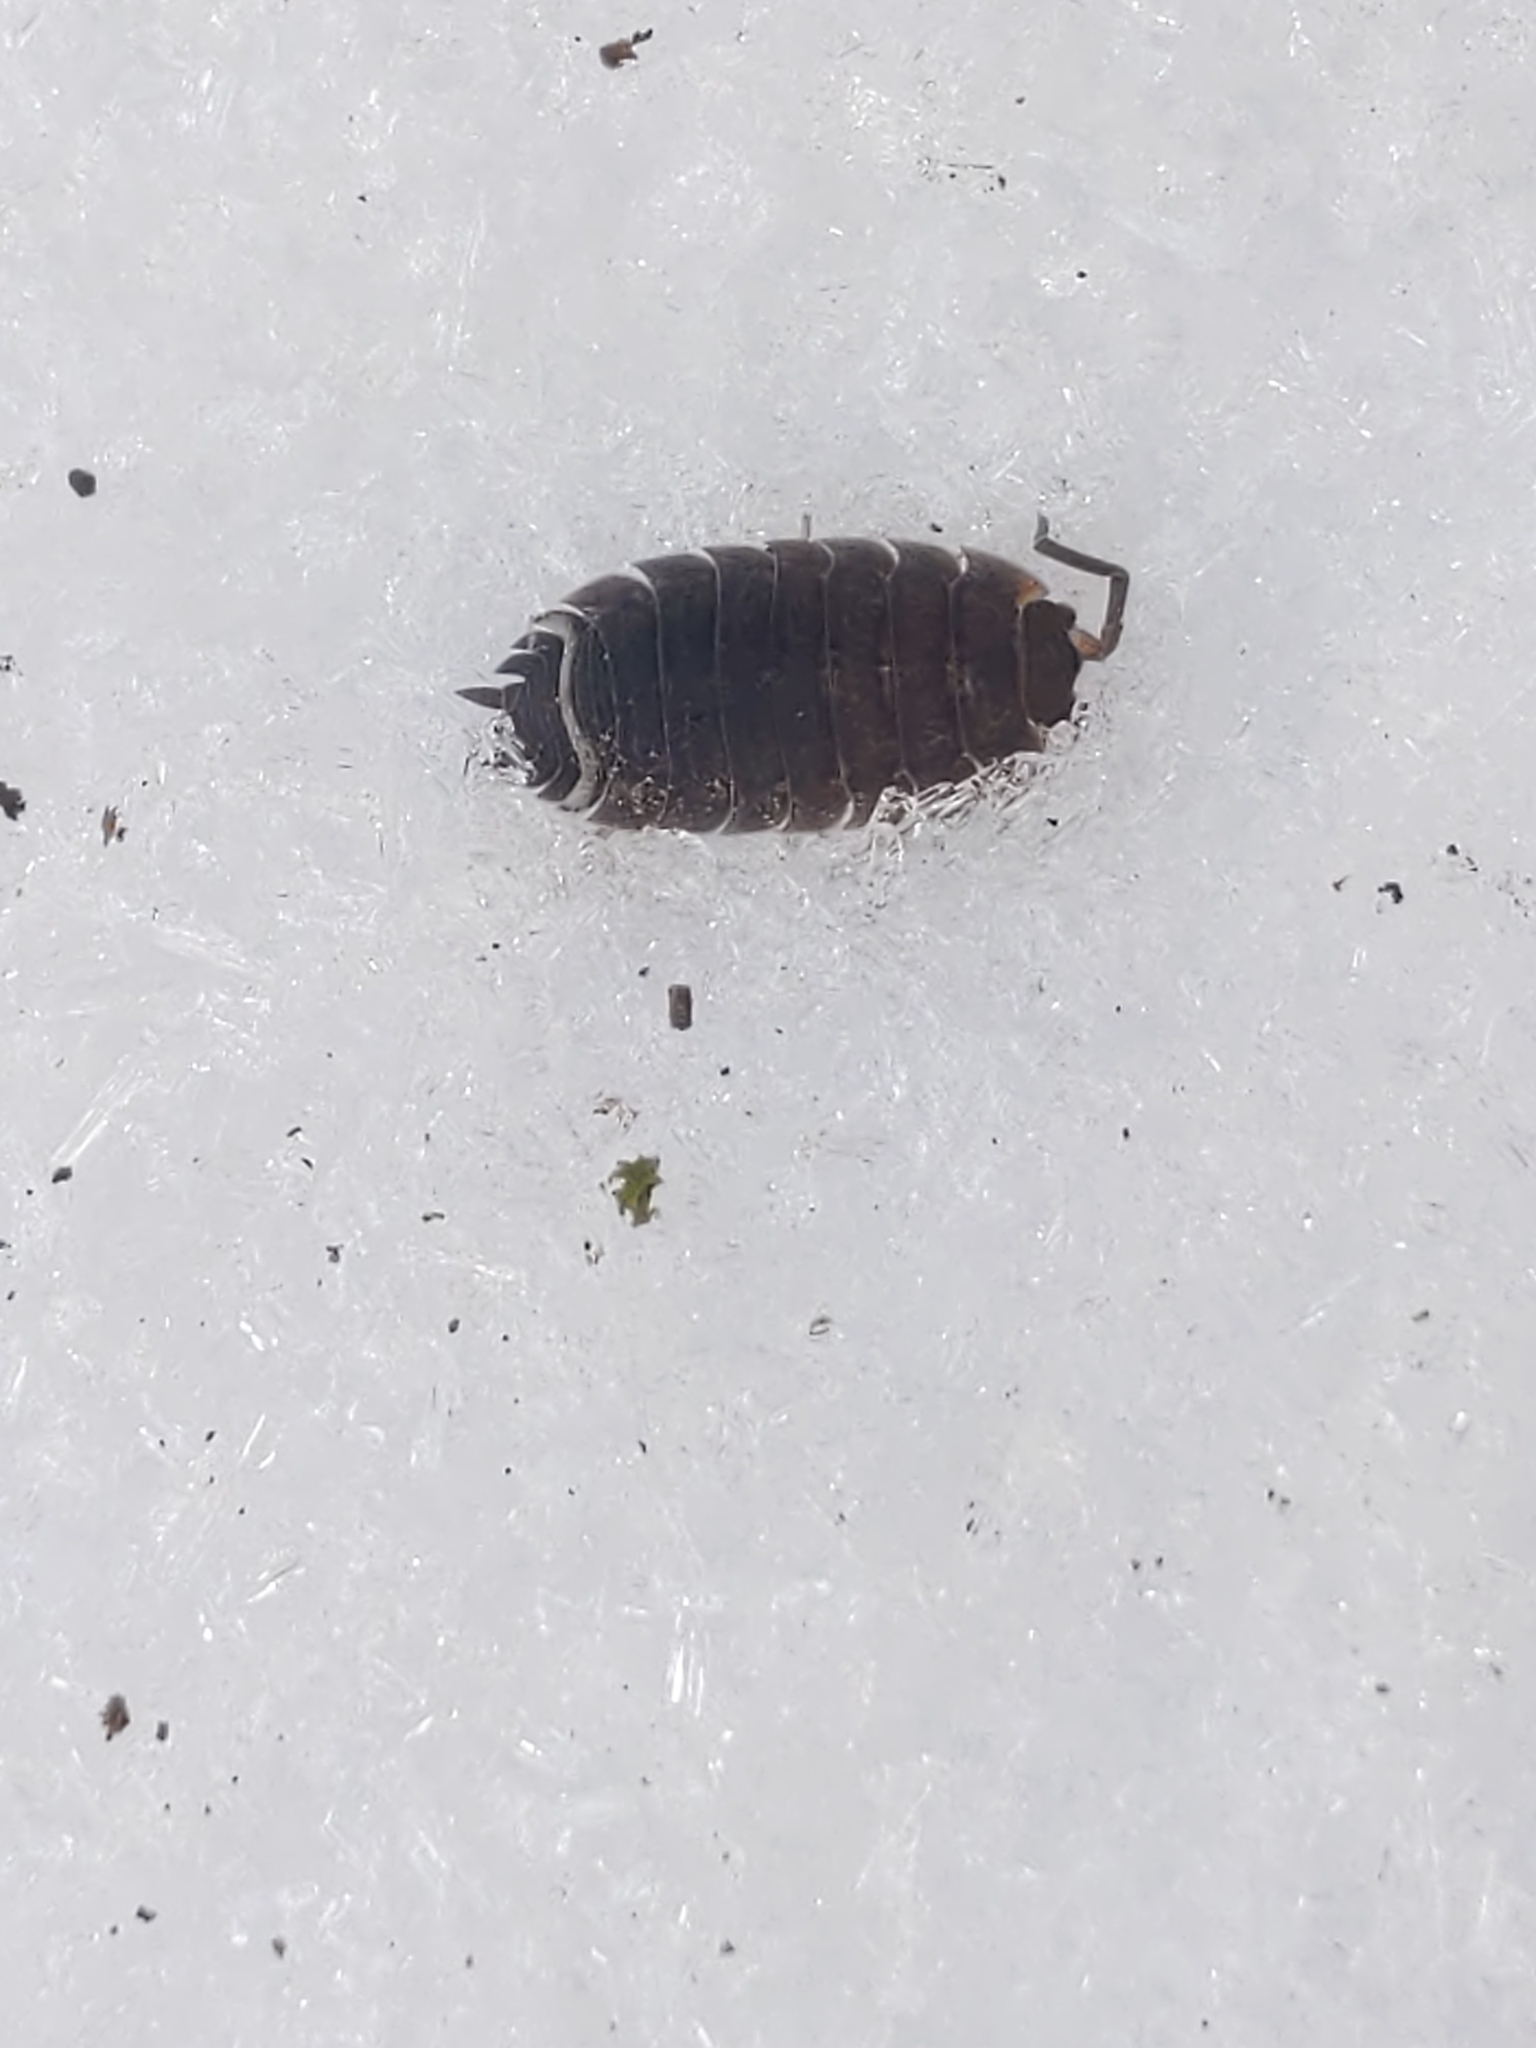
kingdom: Animalia
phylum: Arthropoda
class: Malacostraca
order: Isopoda
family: Porcellionidae
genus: Porcellio
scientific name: Porcellio scaber
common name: Common rough woodlouse
